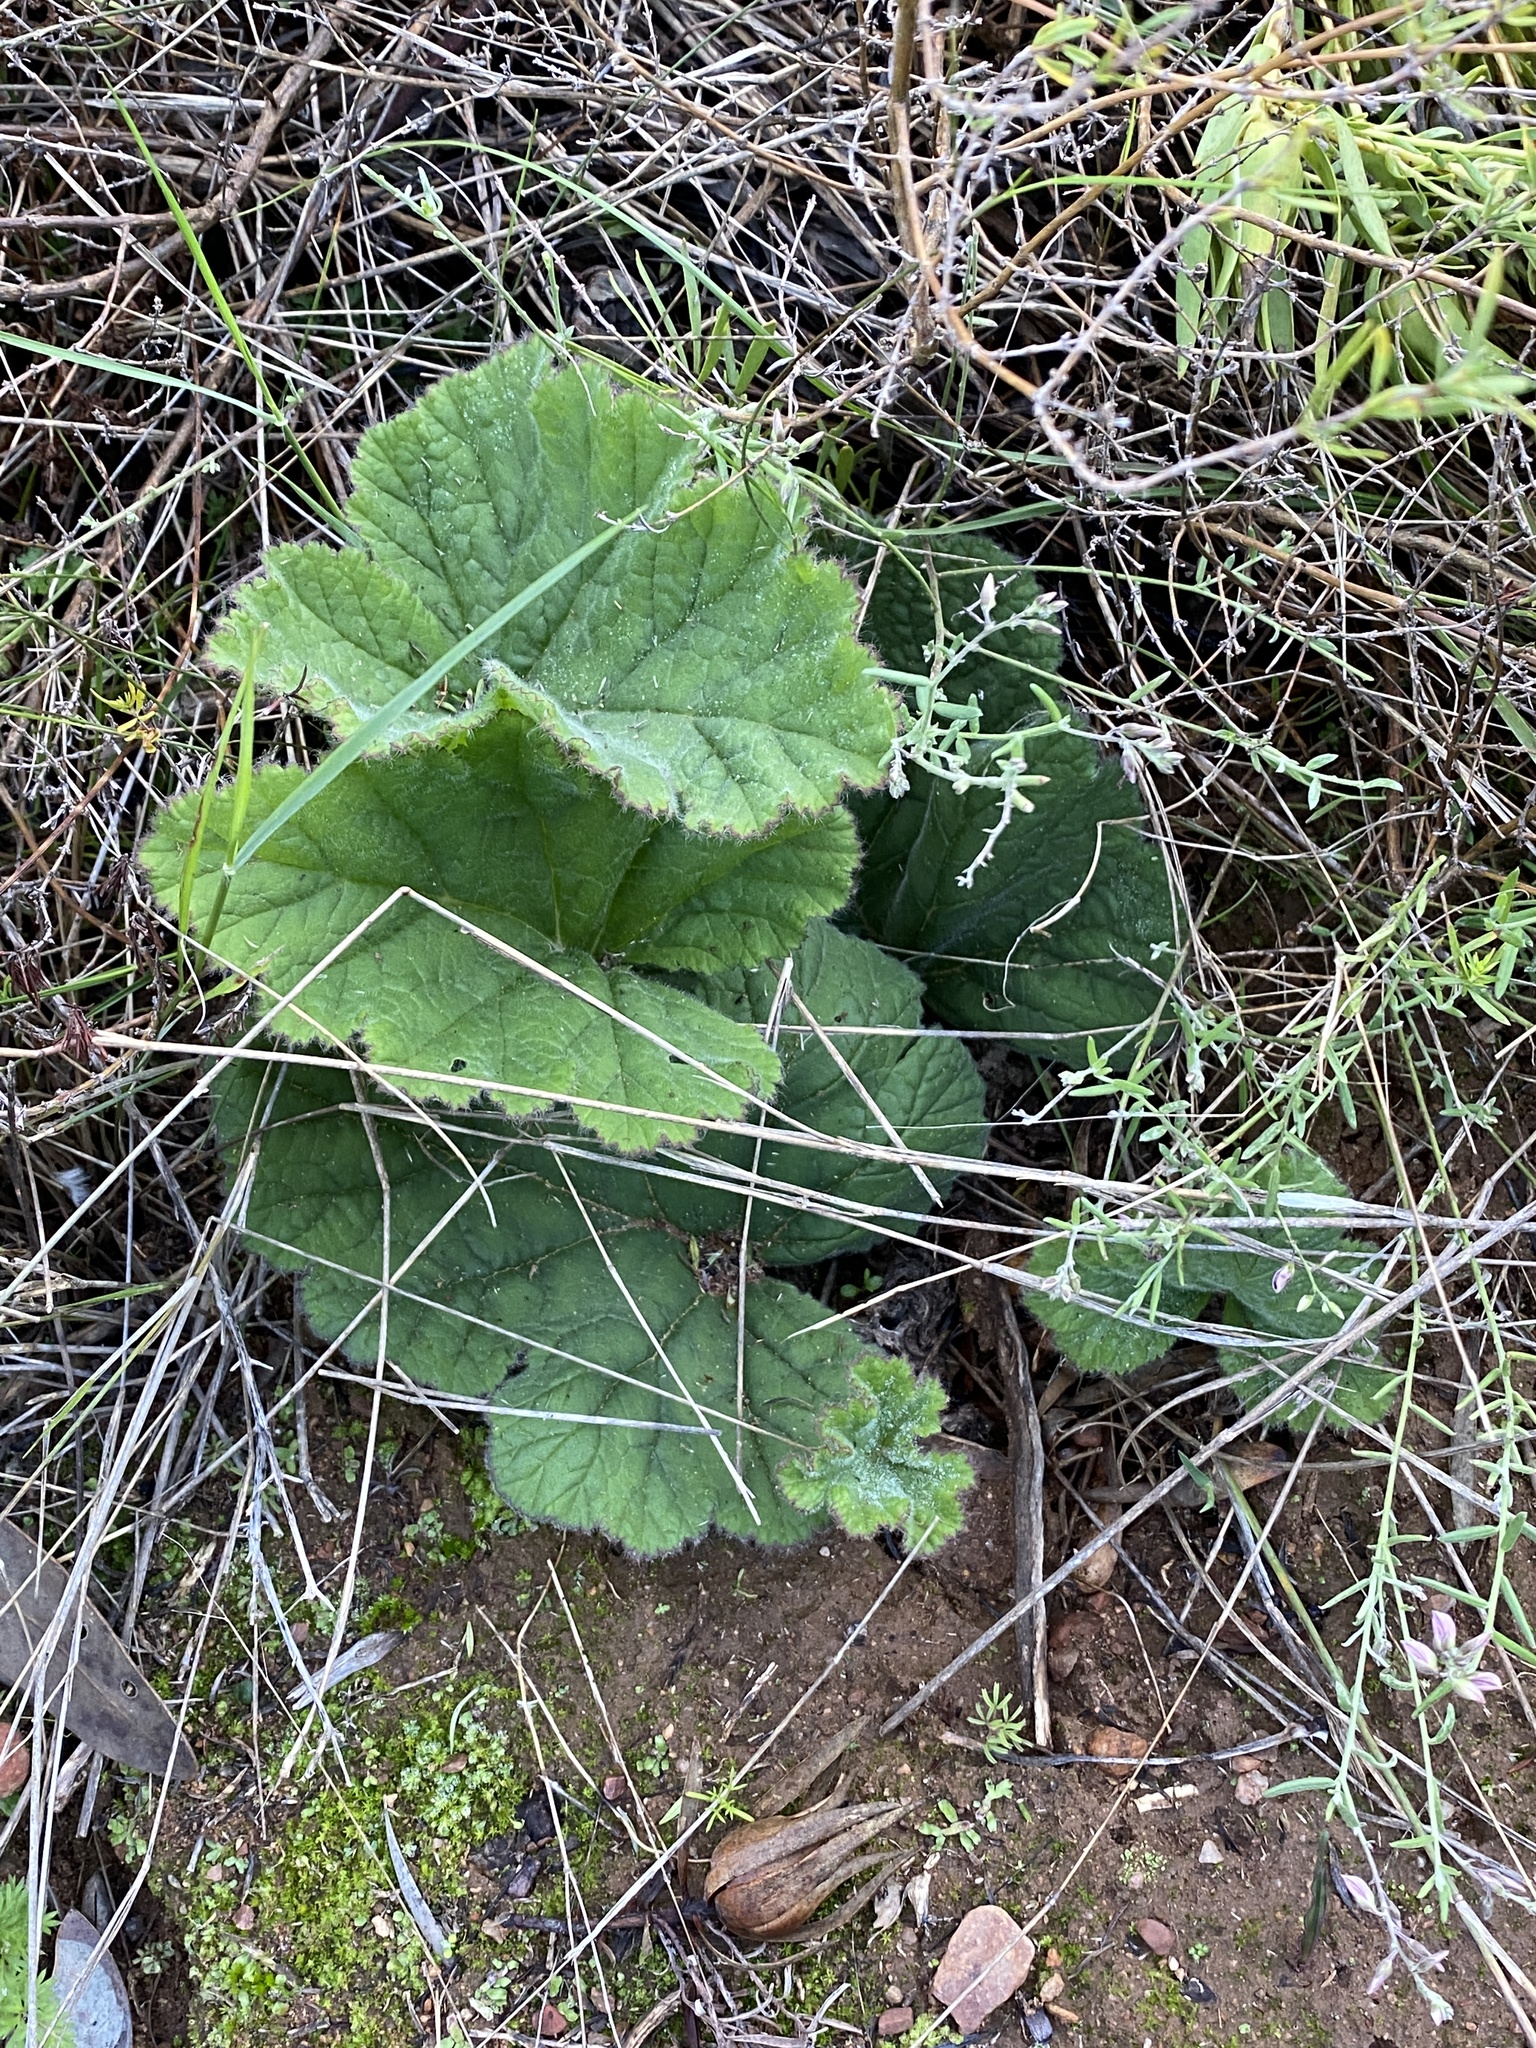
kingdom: Plantae
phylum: Tracheophyta
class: Magnoliopsida
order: Geraniales
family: Geraniaceae
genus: Pelargonium
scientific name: Pelargonium lobatum
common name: Vine-leaf pelargonium
